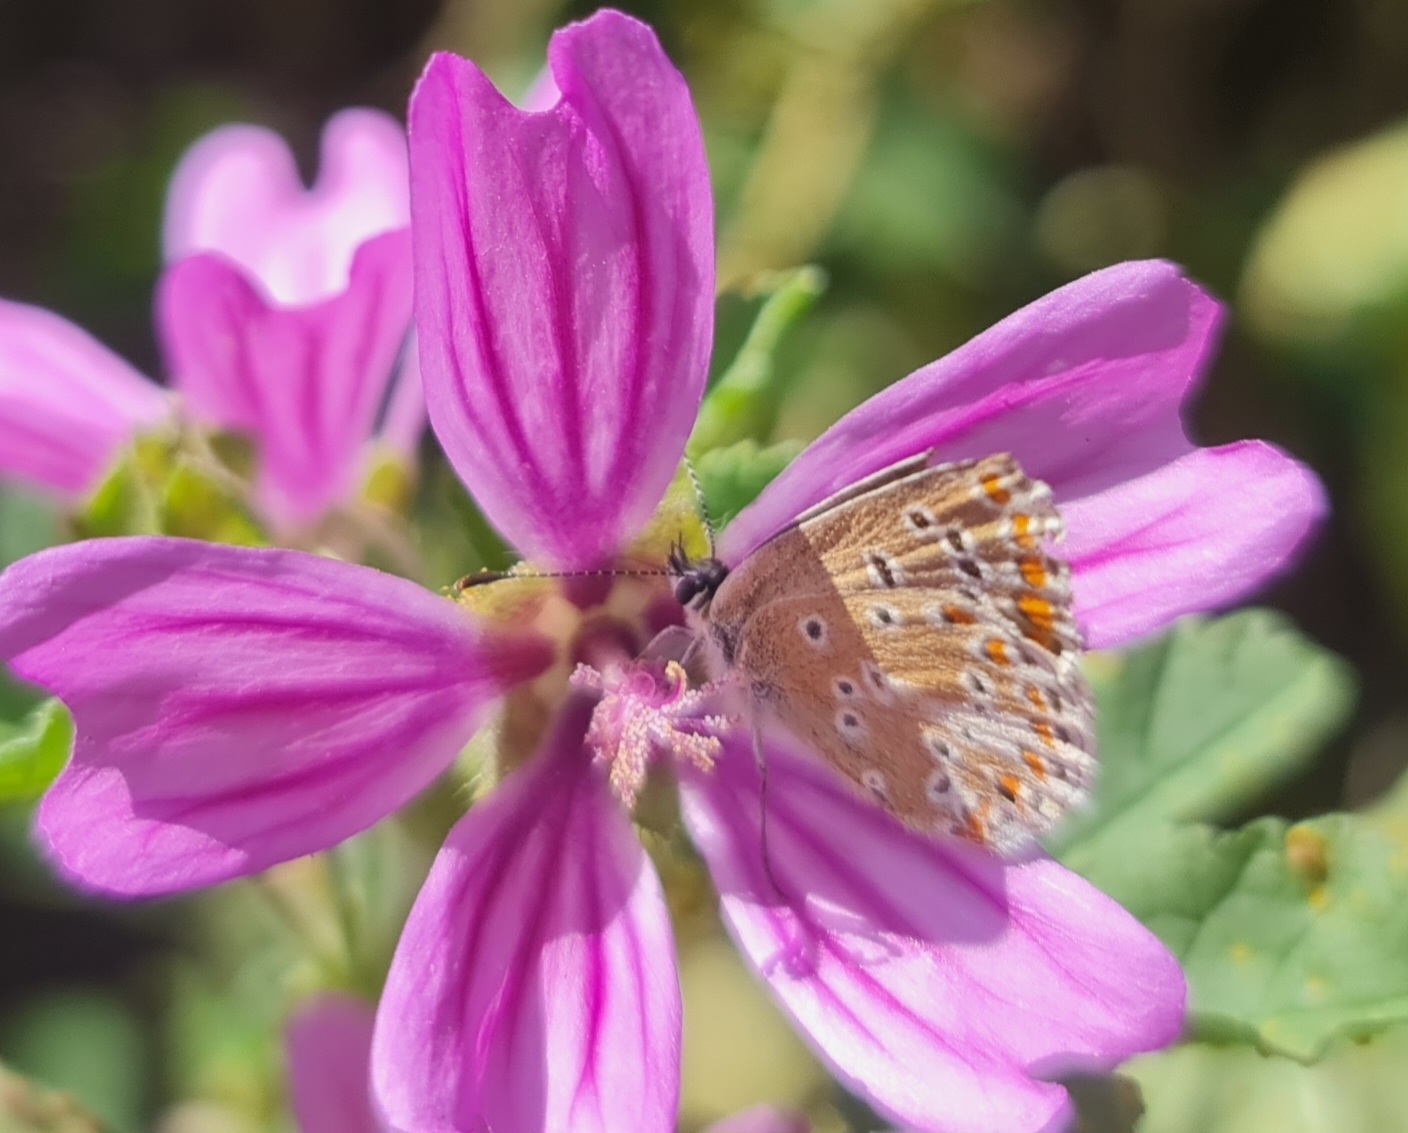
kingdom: Animalia
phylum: Arthropoda
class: Insecta
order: Lepidoptera
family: Lycaenidae
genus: Aricia
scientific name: Aricia agestis
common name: Brown argus
